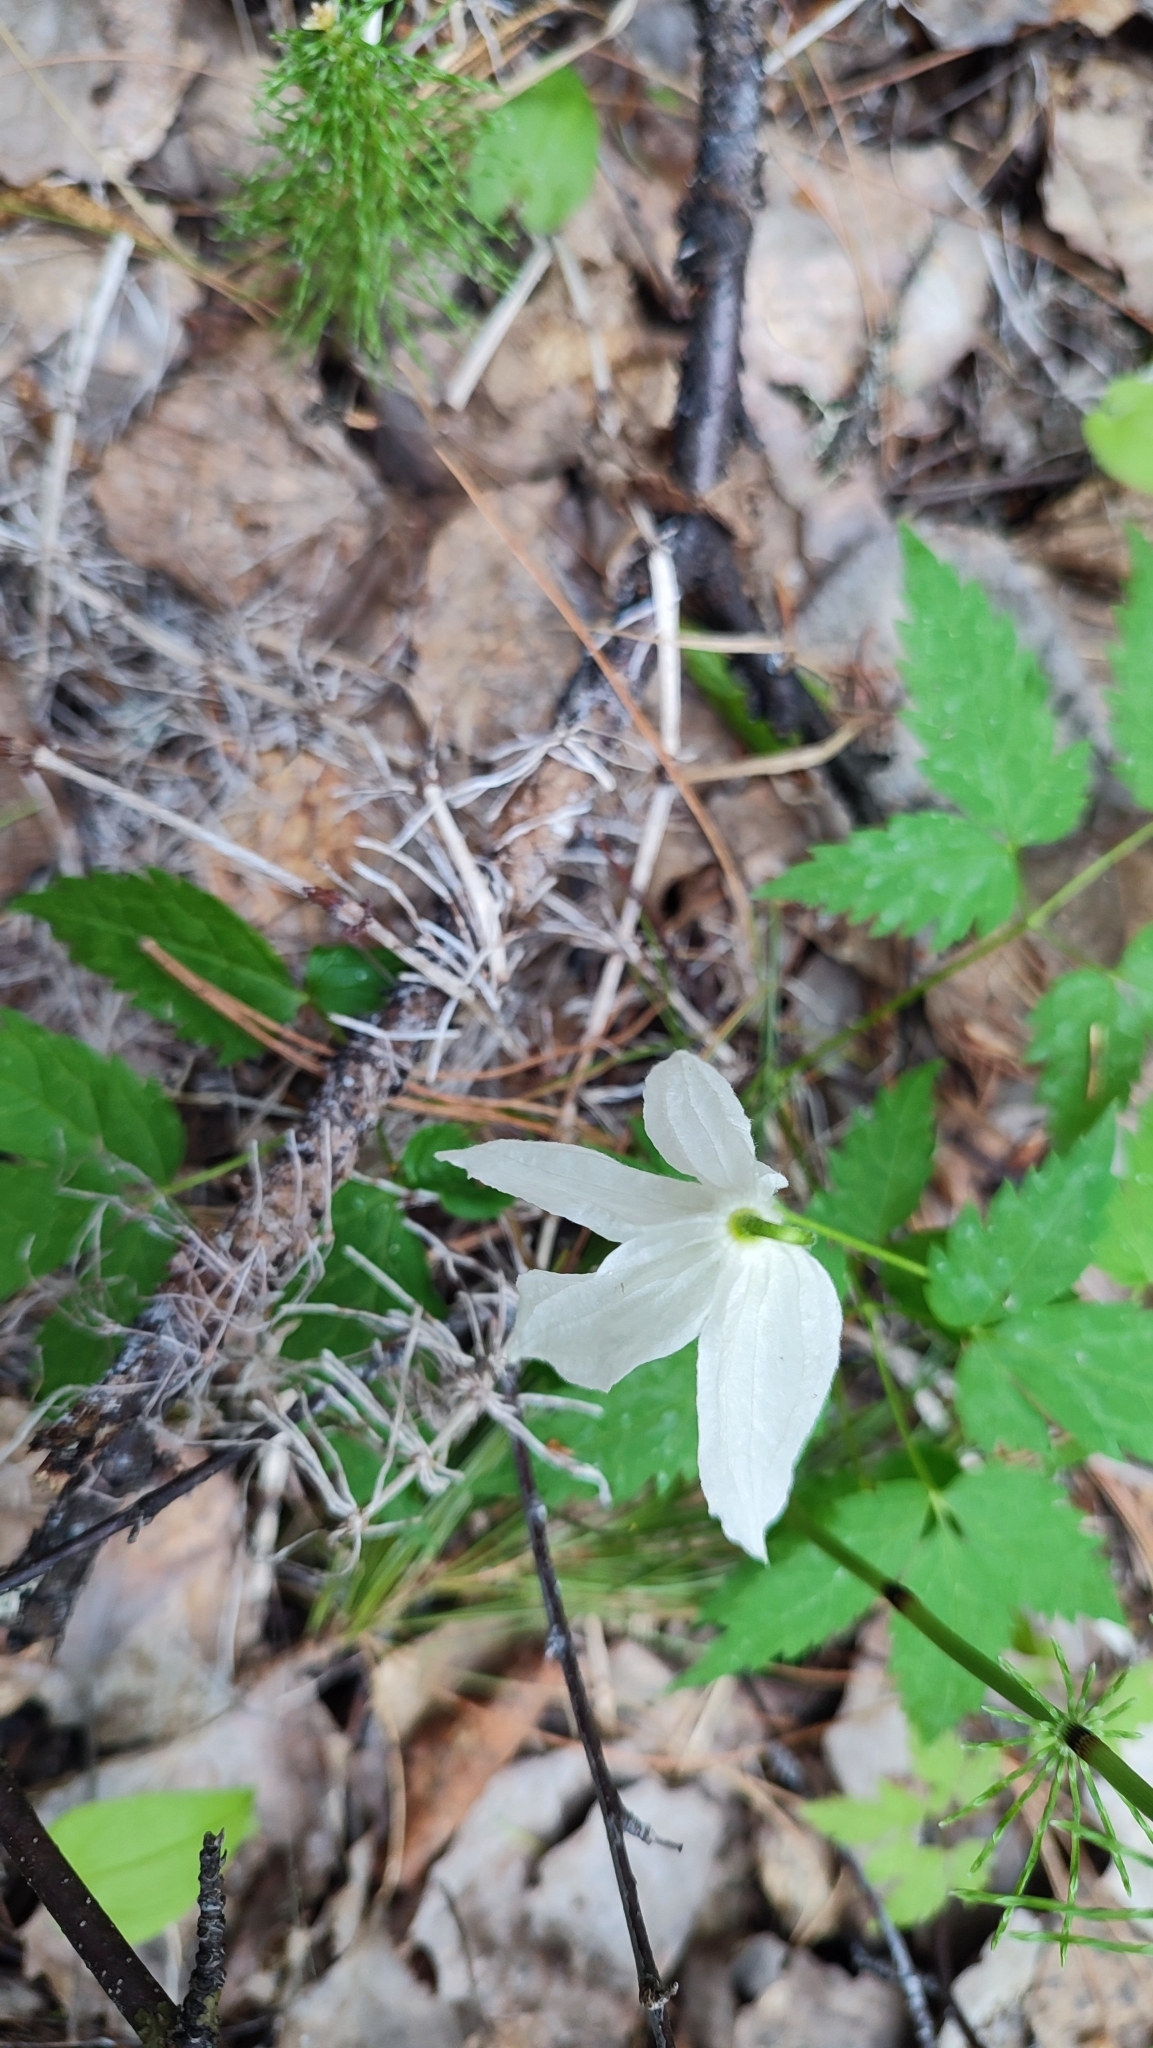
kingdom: Plantae
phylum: Tracheophyta
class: Magnoliopsida
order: Ranunculales
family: Ranunculaceae
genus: Clematis
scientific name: Clematis sibirica
